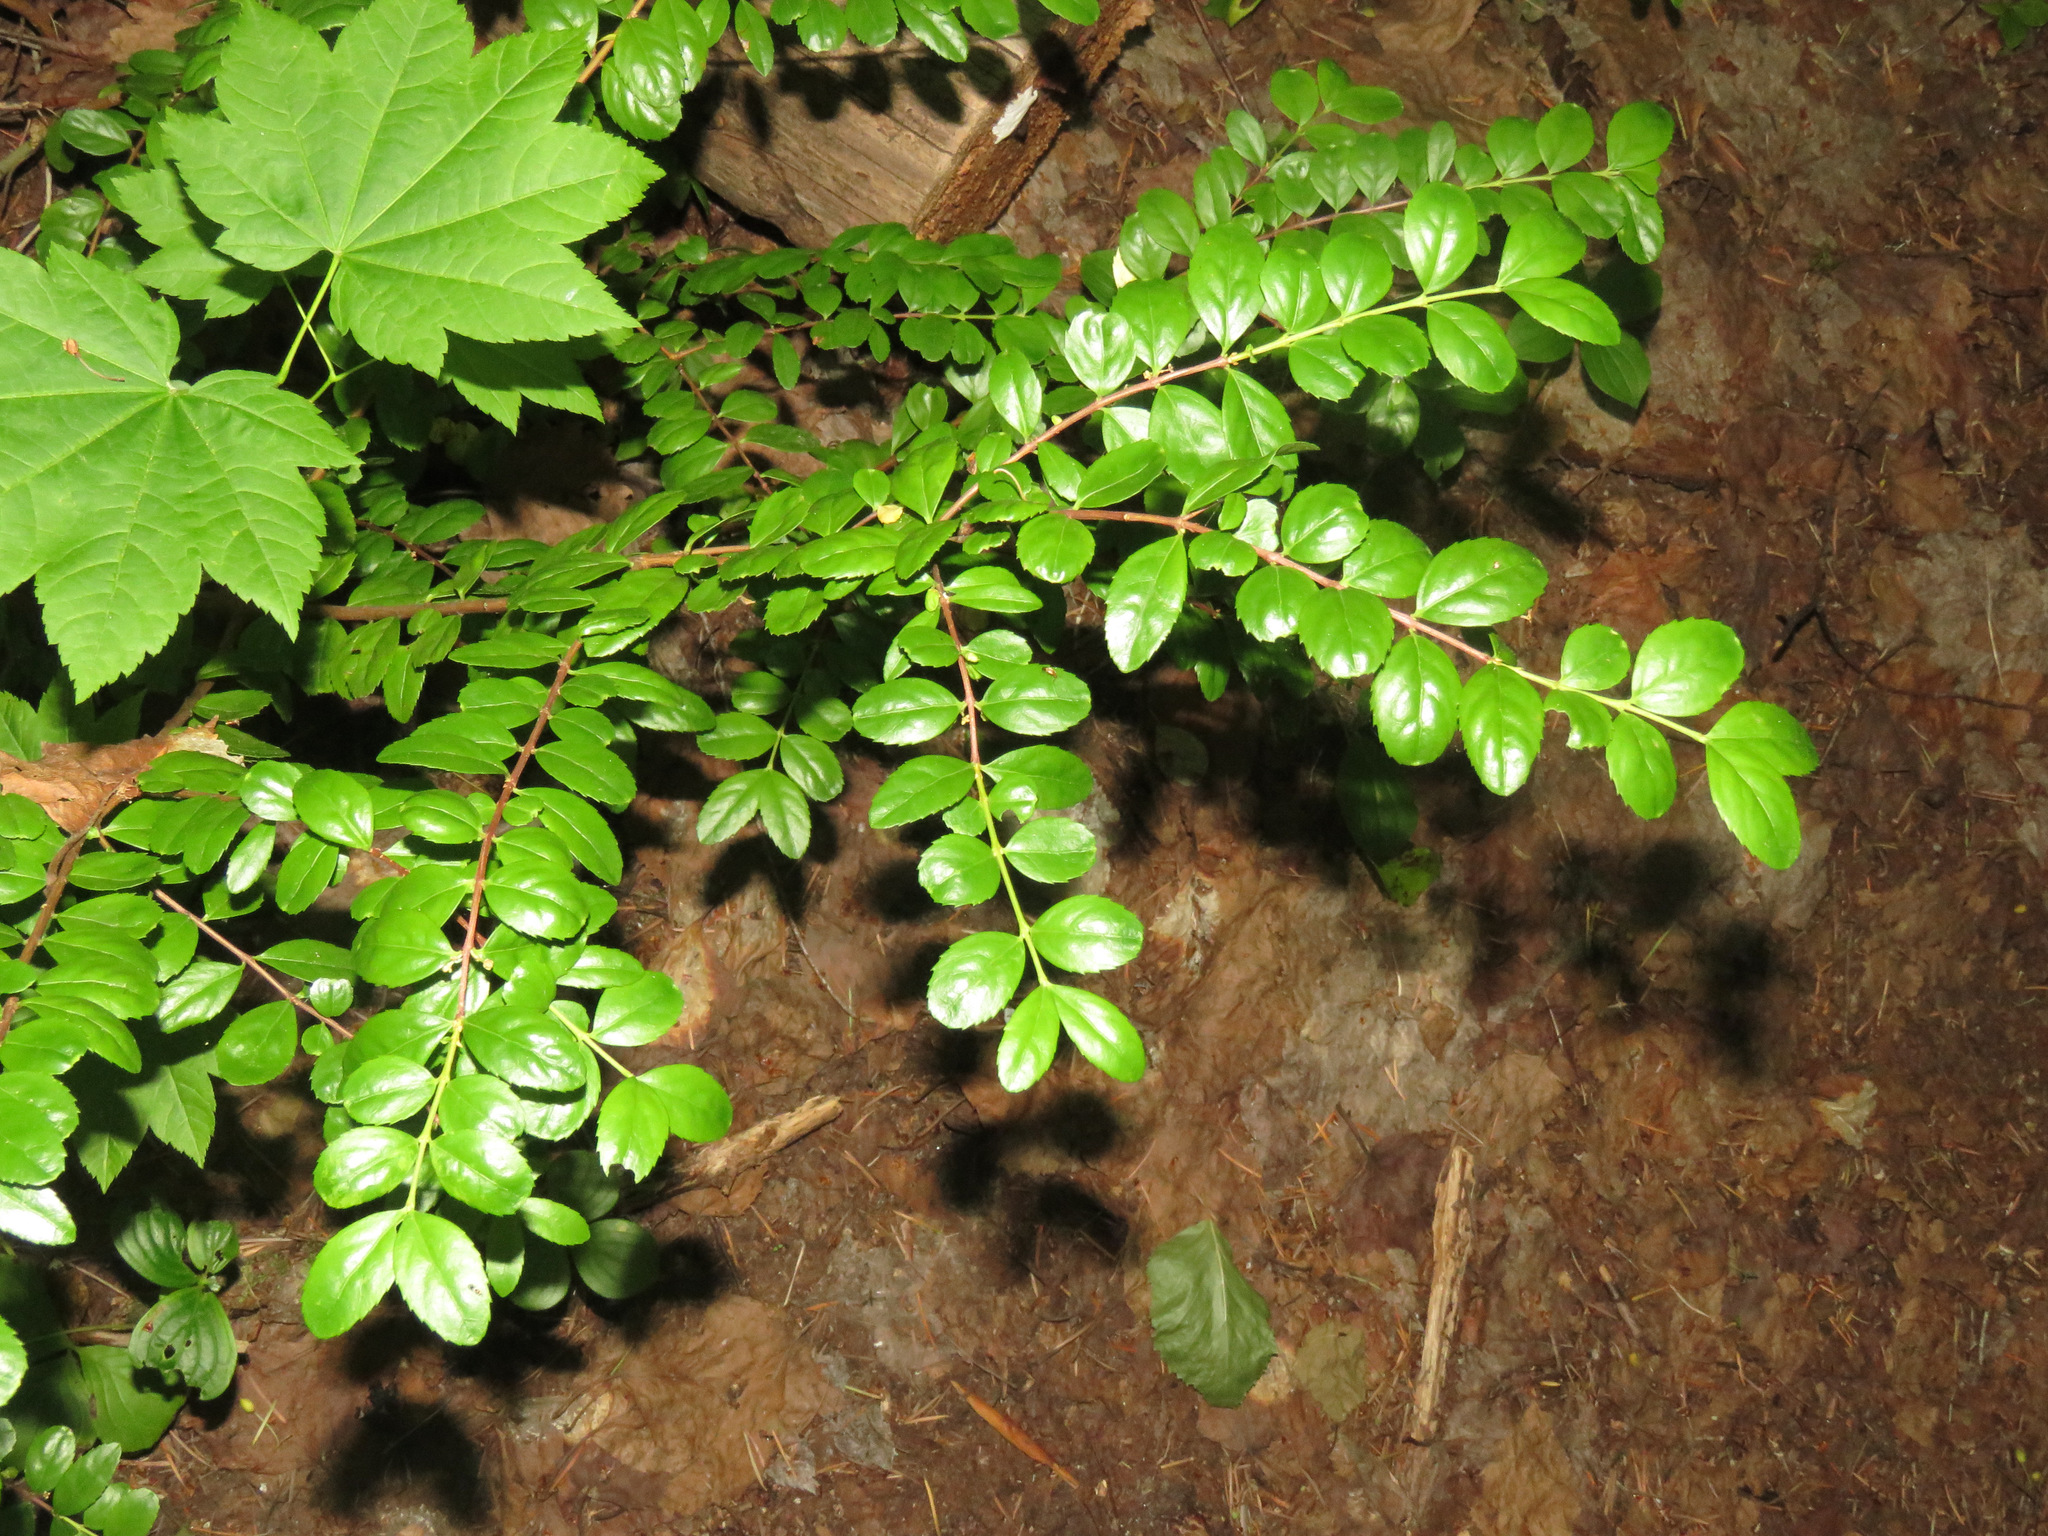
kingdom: Plantae
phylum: Tracheophyta
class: Magnoliopsida
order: Celastrales
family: Celastraceae
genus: Paxistima
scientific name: Paxistima myrsinites
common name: Mountain-lover
